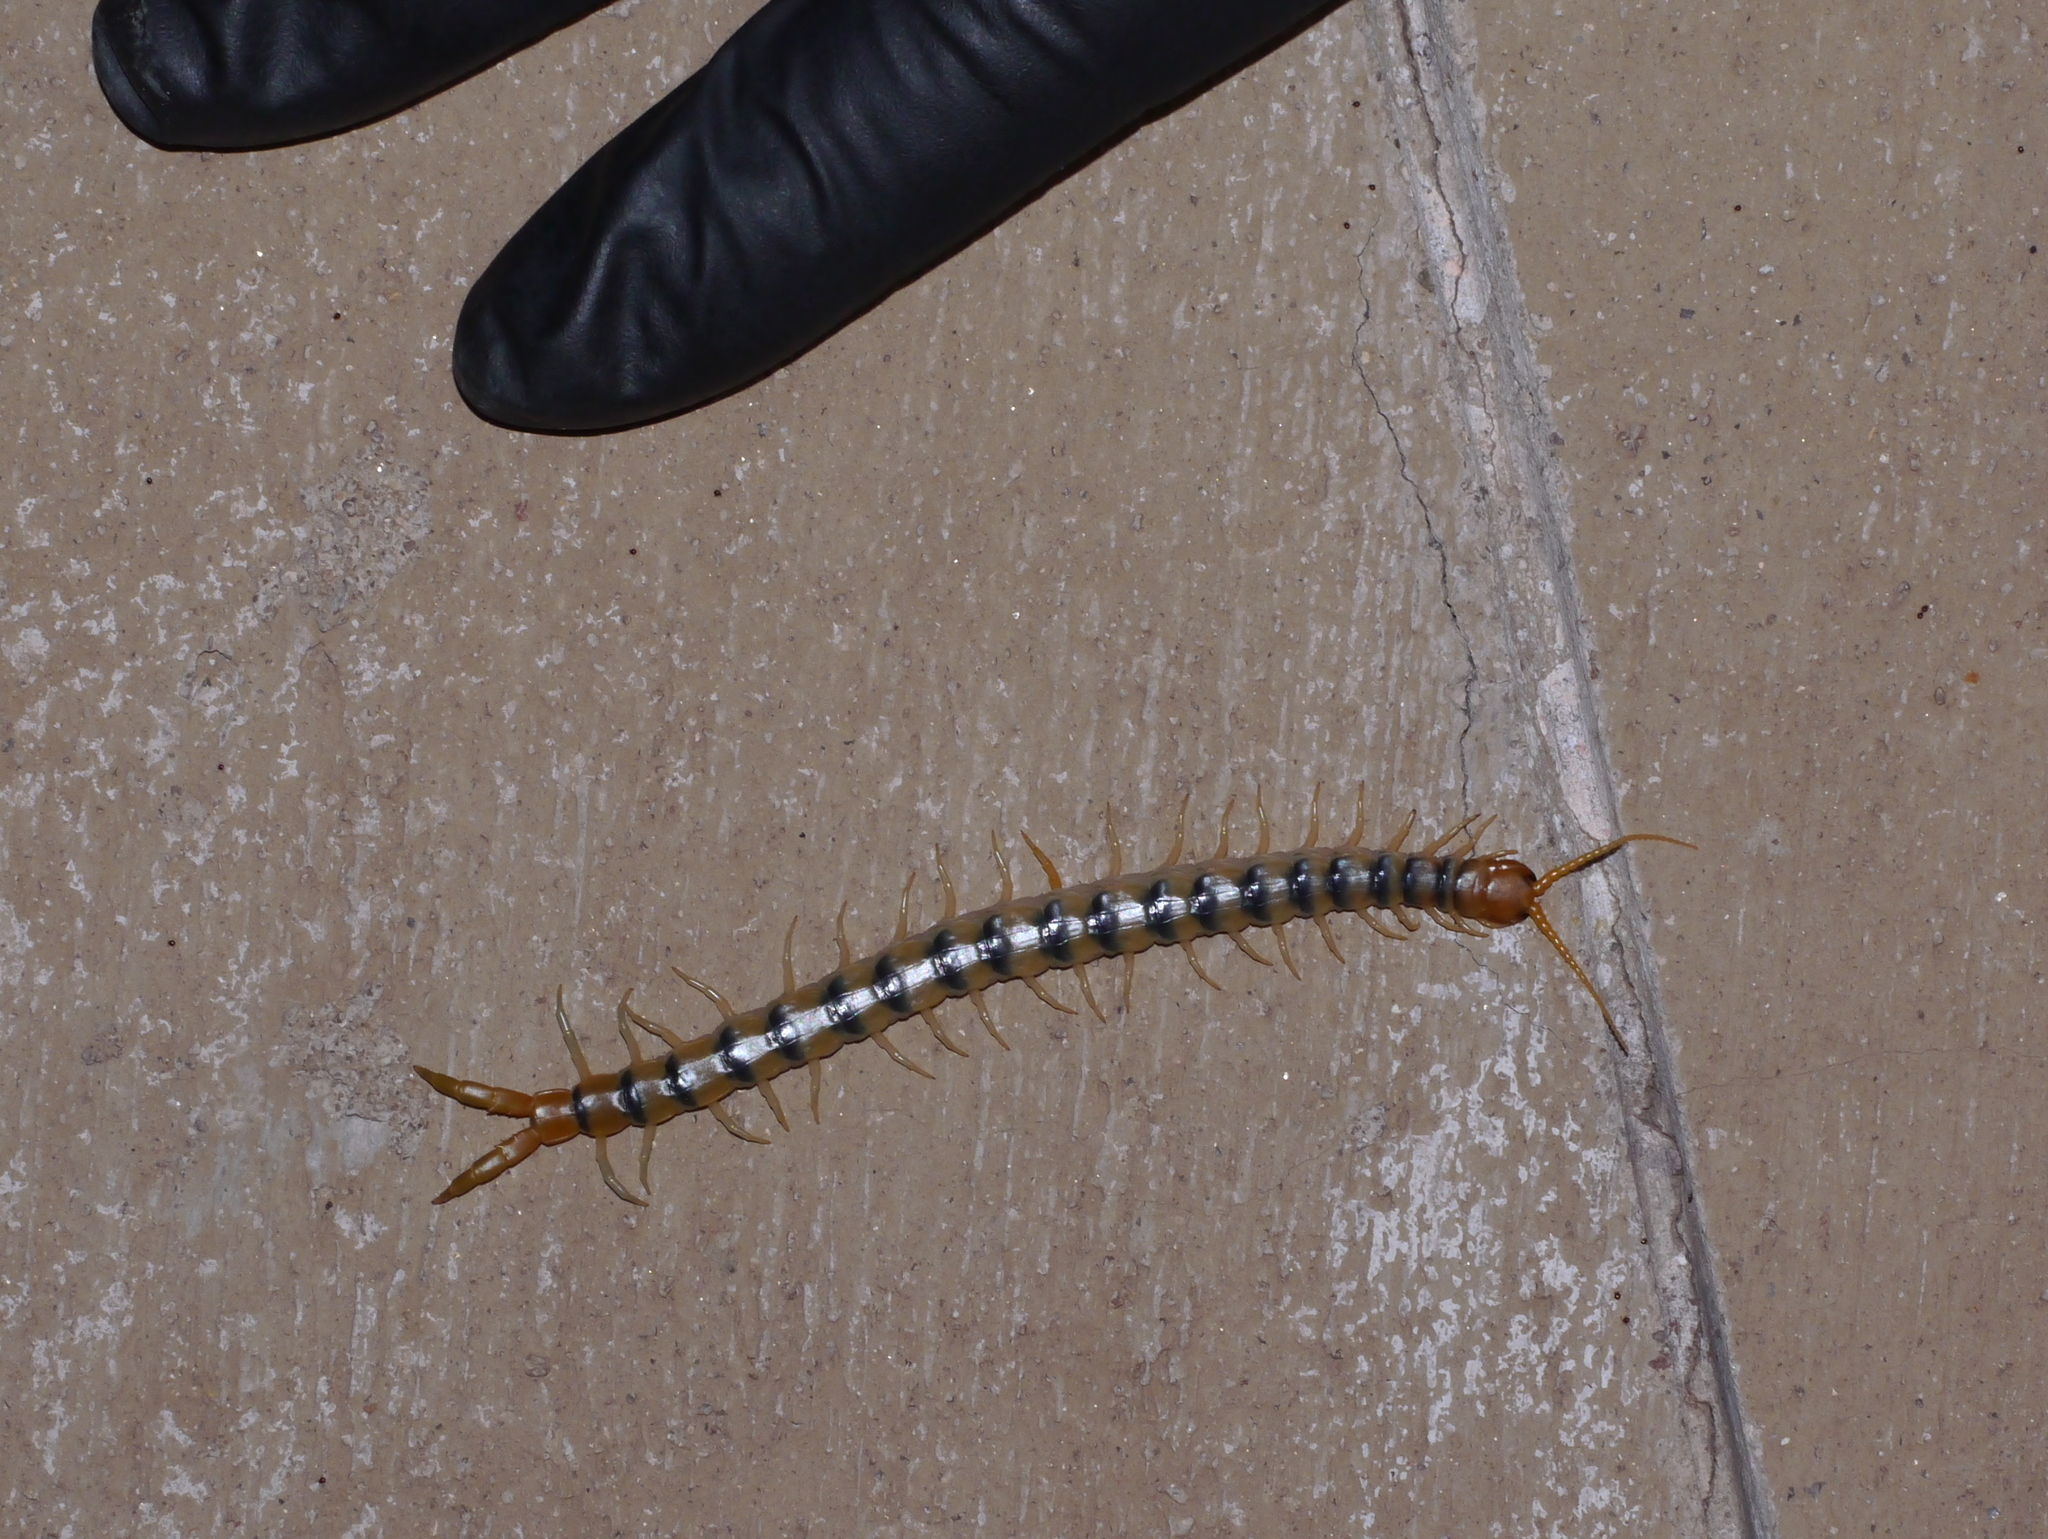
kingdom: Animalia
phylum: Arthropoda
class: Chilopoda
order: Scolopendromorpha
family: Scolopendridae
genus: Scolopendra
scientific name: Scolopendra polymorpha
